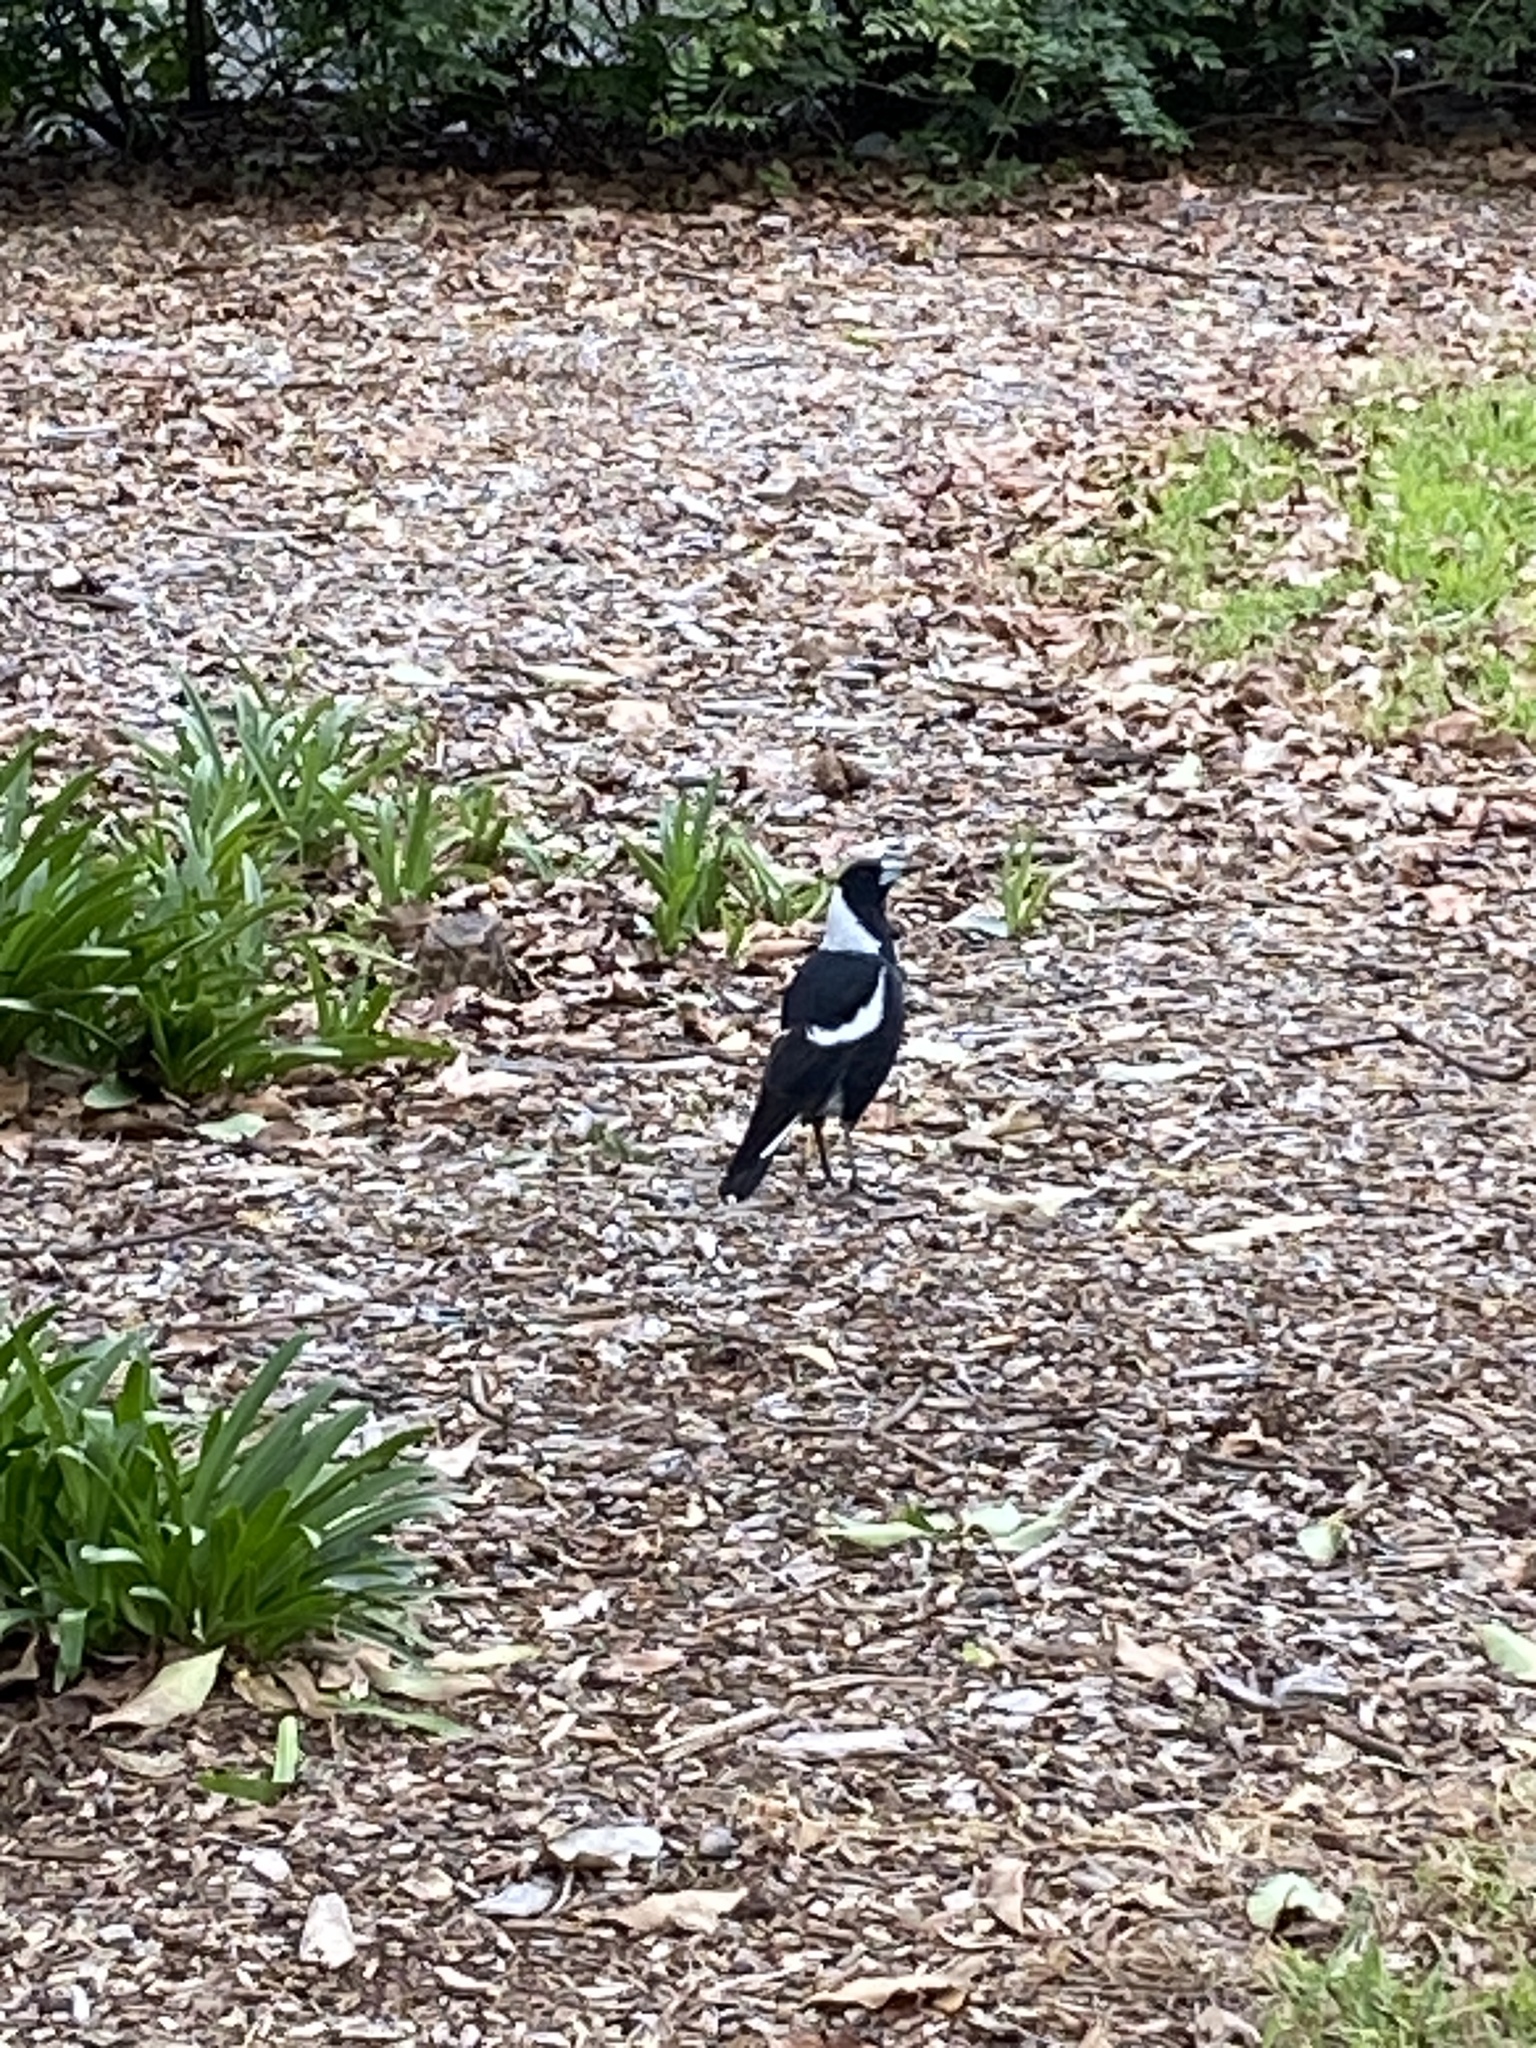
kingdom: Animalia
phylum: Chordata
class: Aves
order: Passeriformes
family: Cracticidae
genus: Gymnorhina
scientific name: Gymnorhina tibicen
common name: Australian magpie
